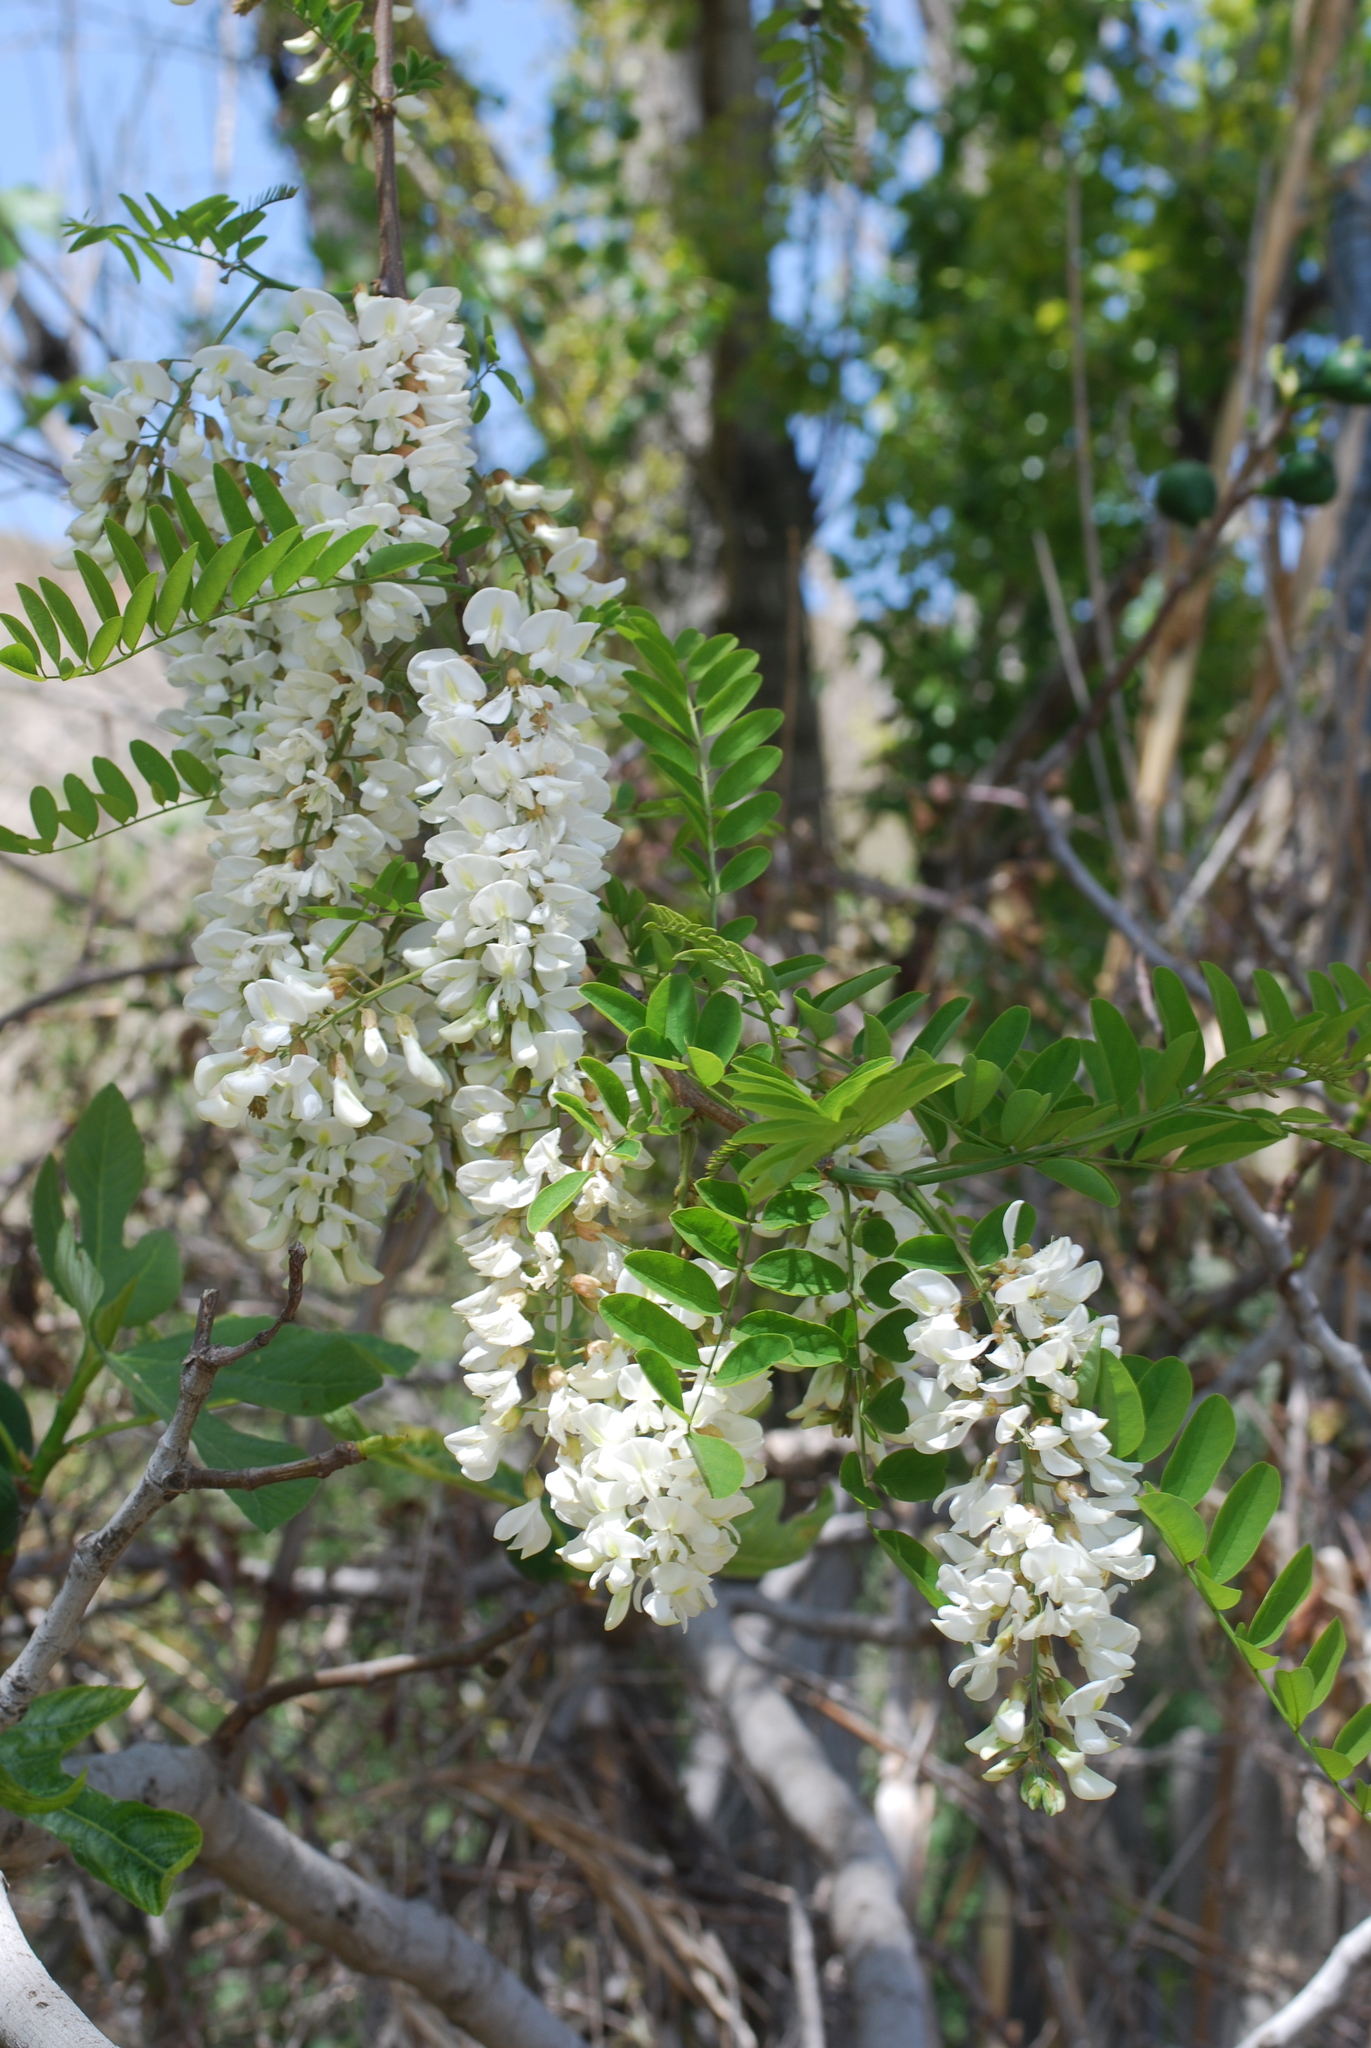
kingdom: Plantae
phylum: Tracheophyta
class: Magnoliopsida
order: Fabales
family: Fabaceae
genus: Robinia
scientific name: Robinia pseudoacacia
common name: Black locust
